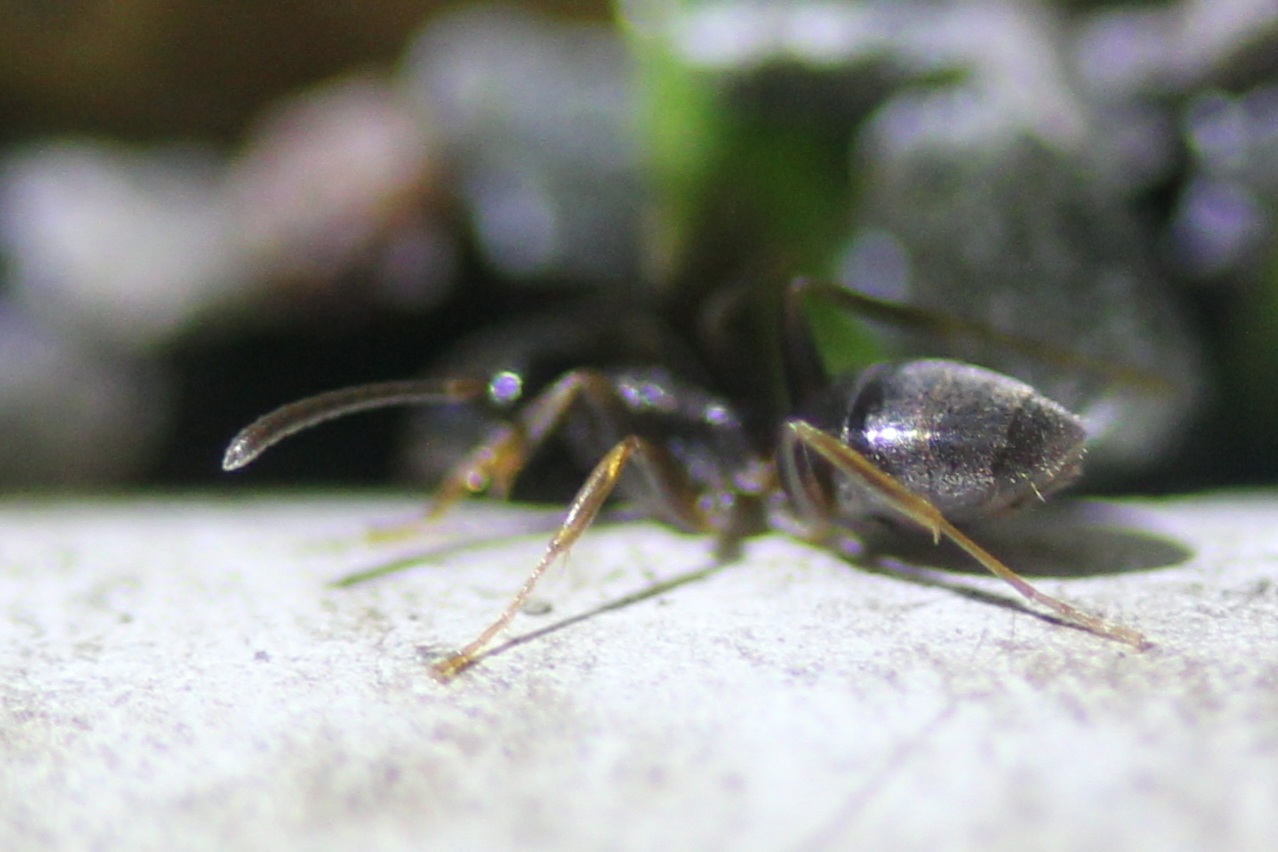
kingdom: Animalia
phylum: Arthropoda
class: Insecta
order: Hymenoptera
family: Formicidae
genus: Tapinoma
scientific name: Tapinoma sessile
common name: Odorous house ant
